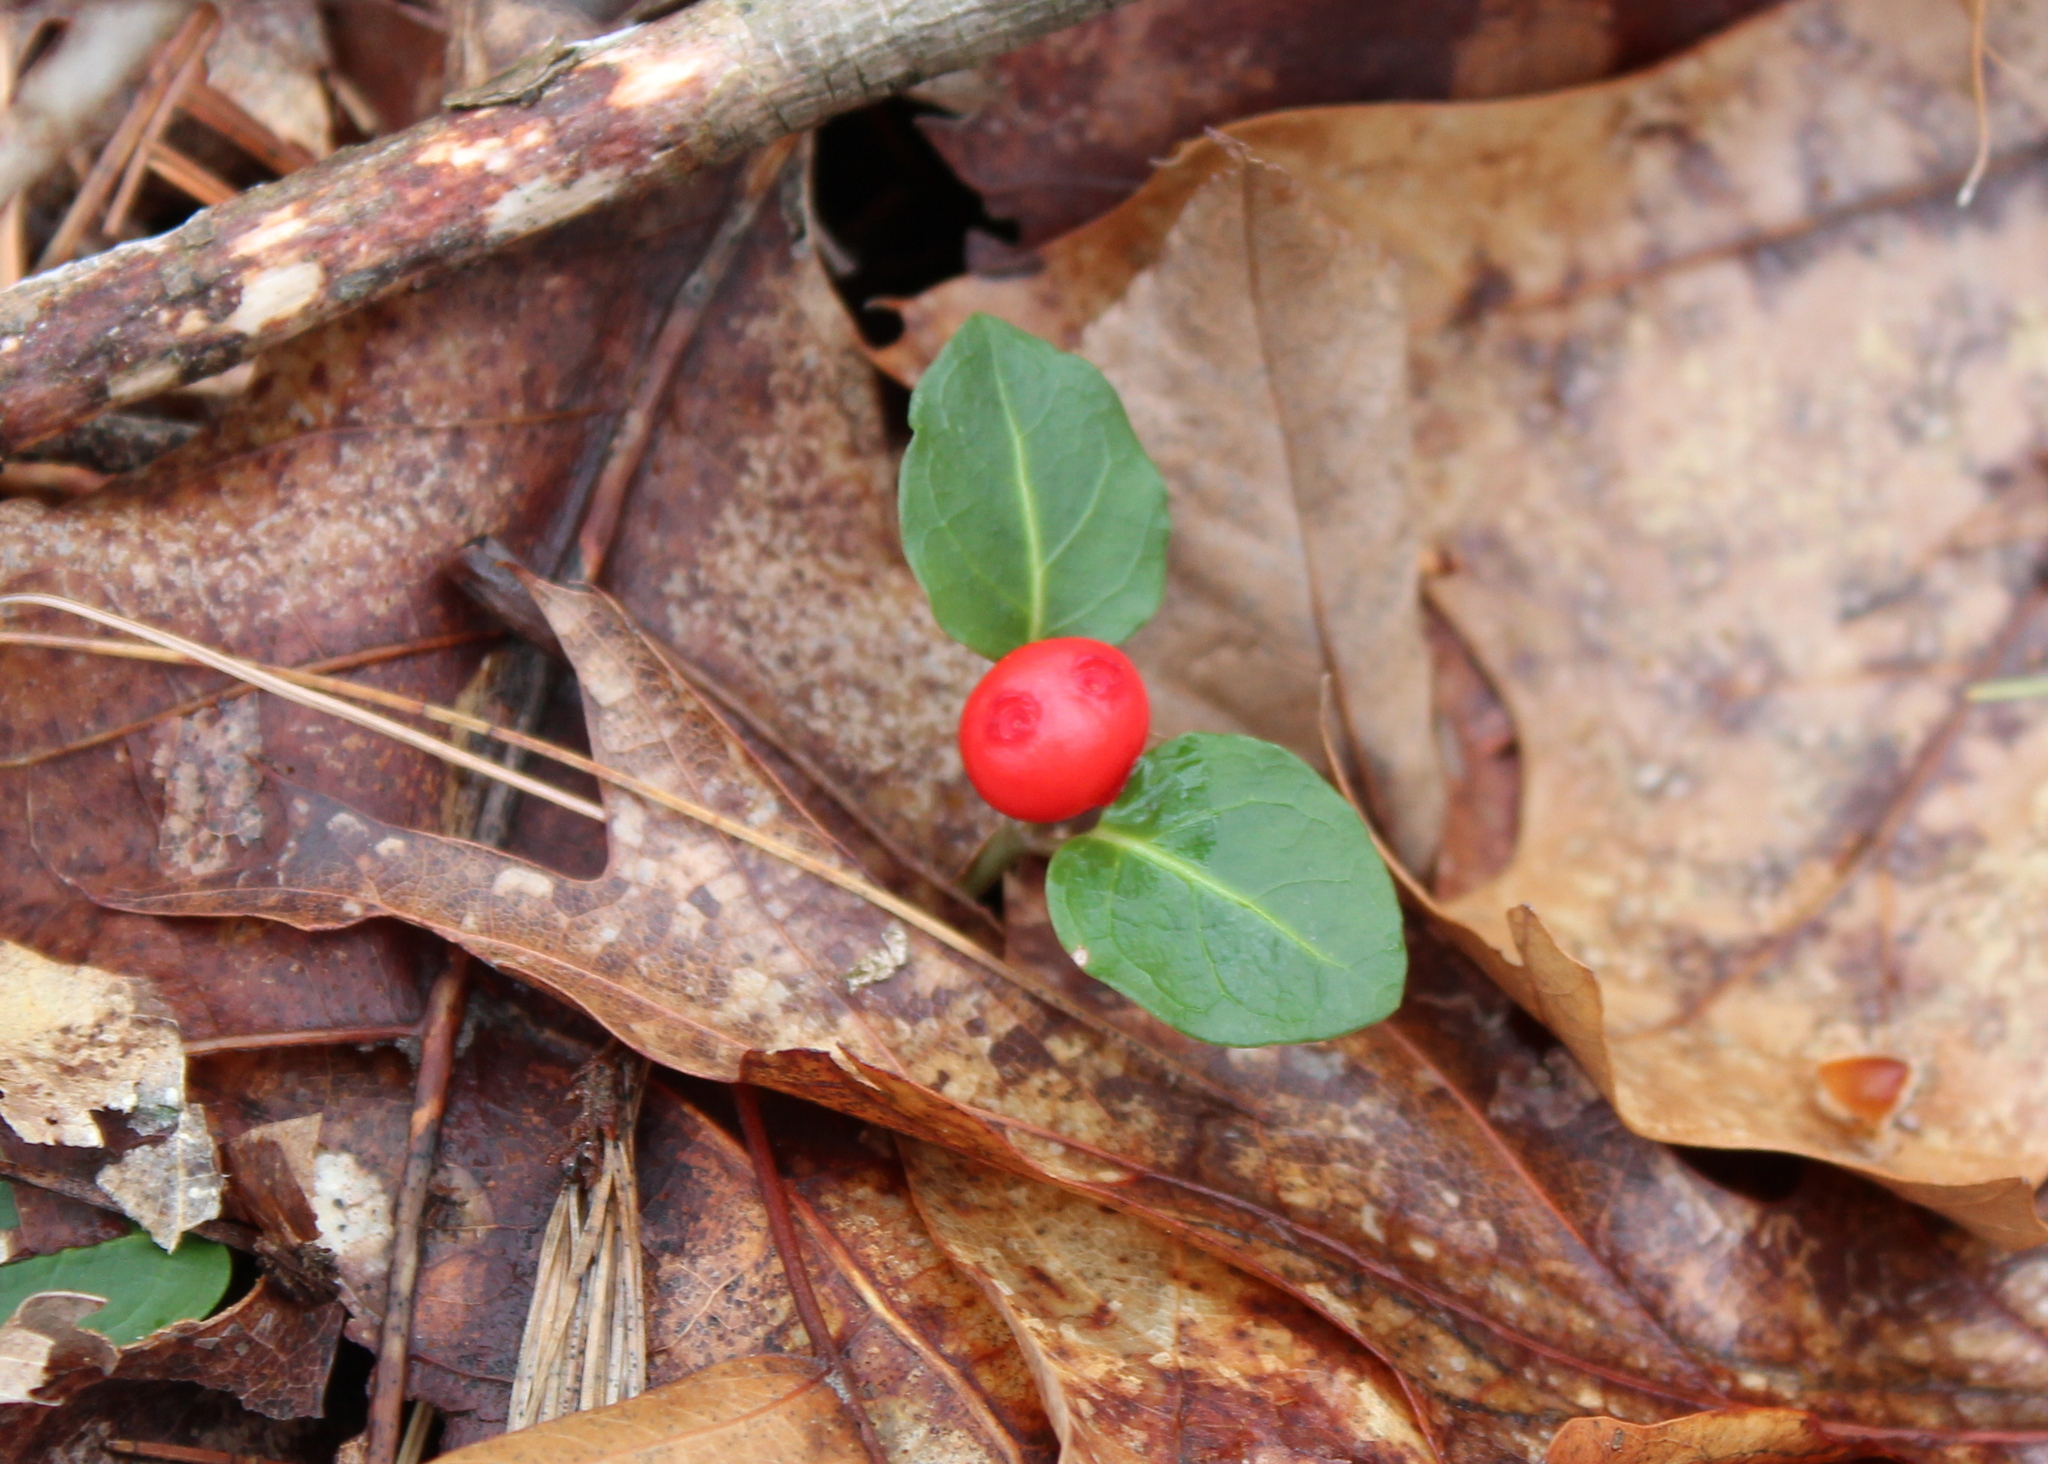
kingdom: Plantae
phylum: Tracheophyta
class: Magnoliopsida
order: Gentianales
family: Rubiaceae
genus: Mitchella
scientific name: Mitchella repens
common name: Partridge-berry
